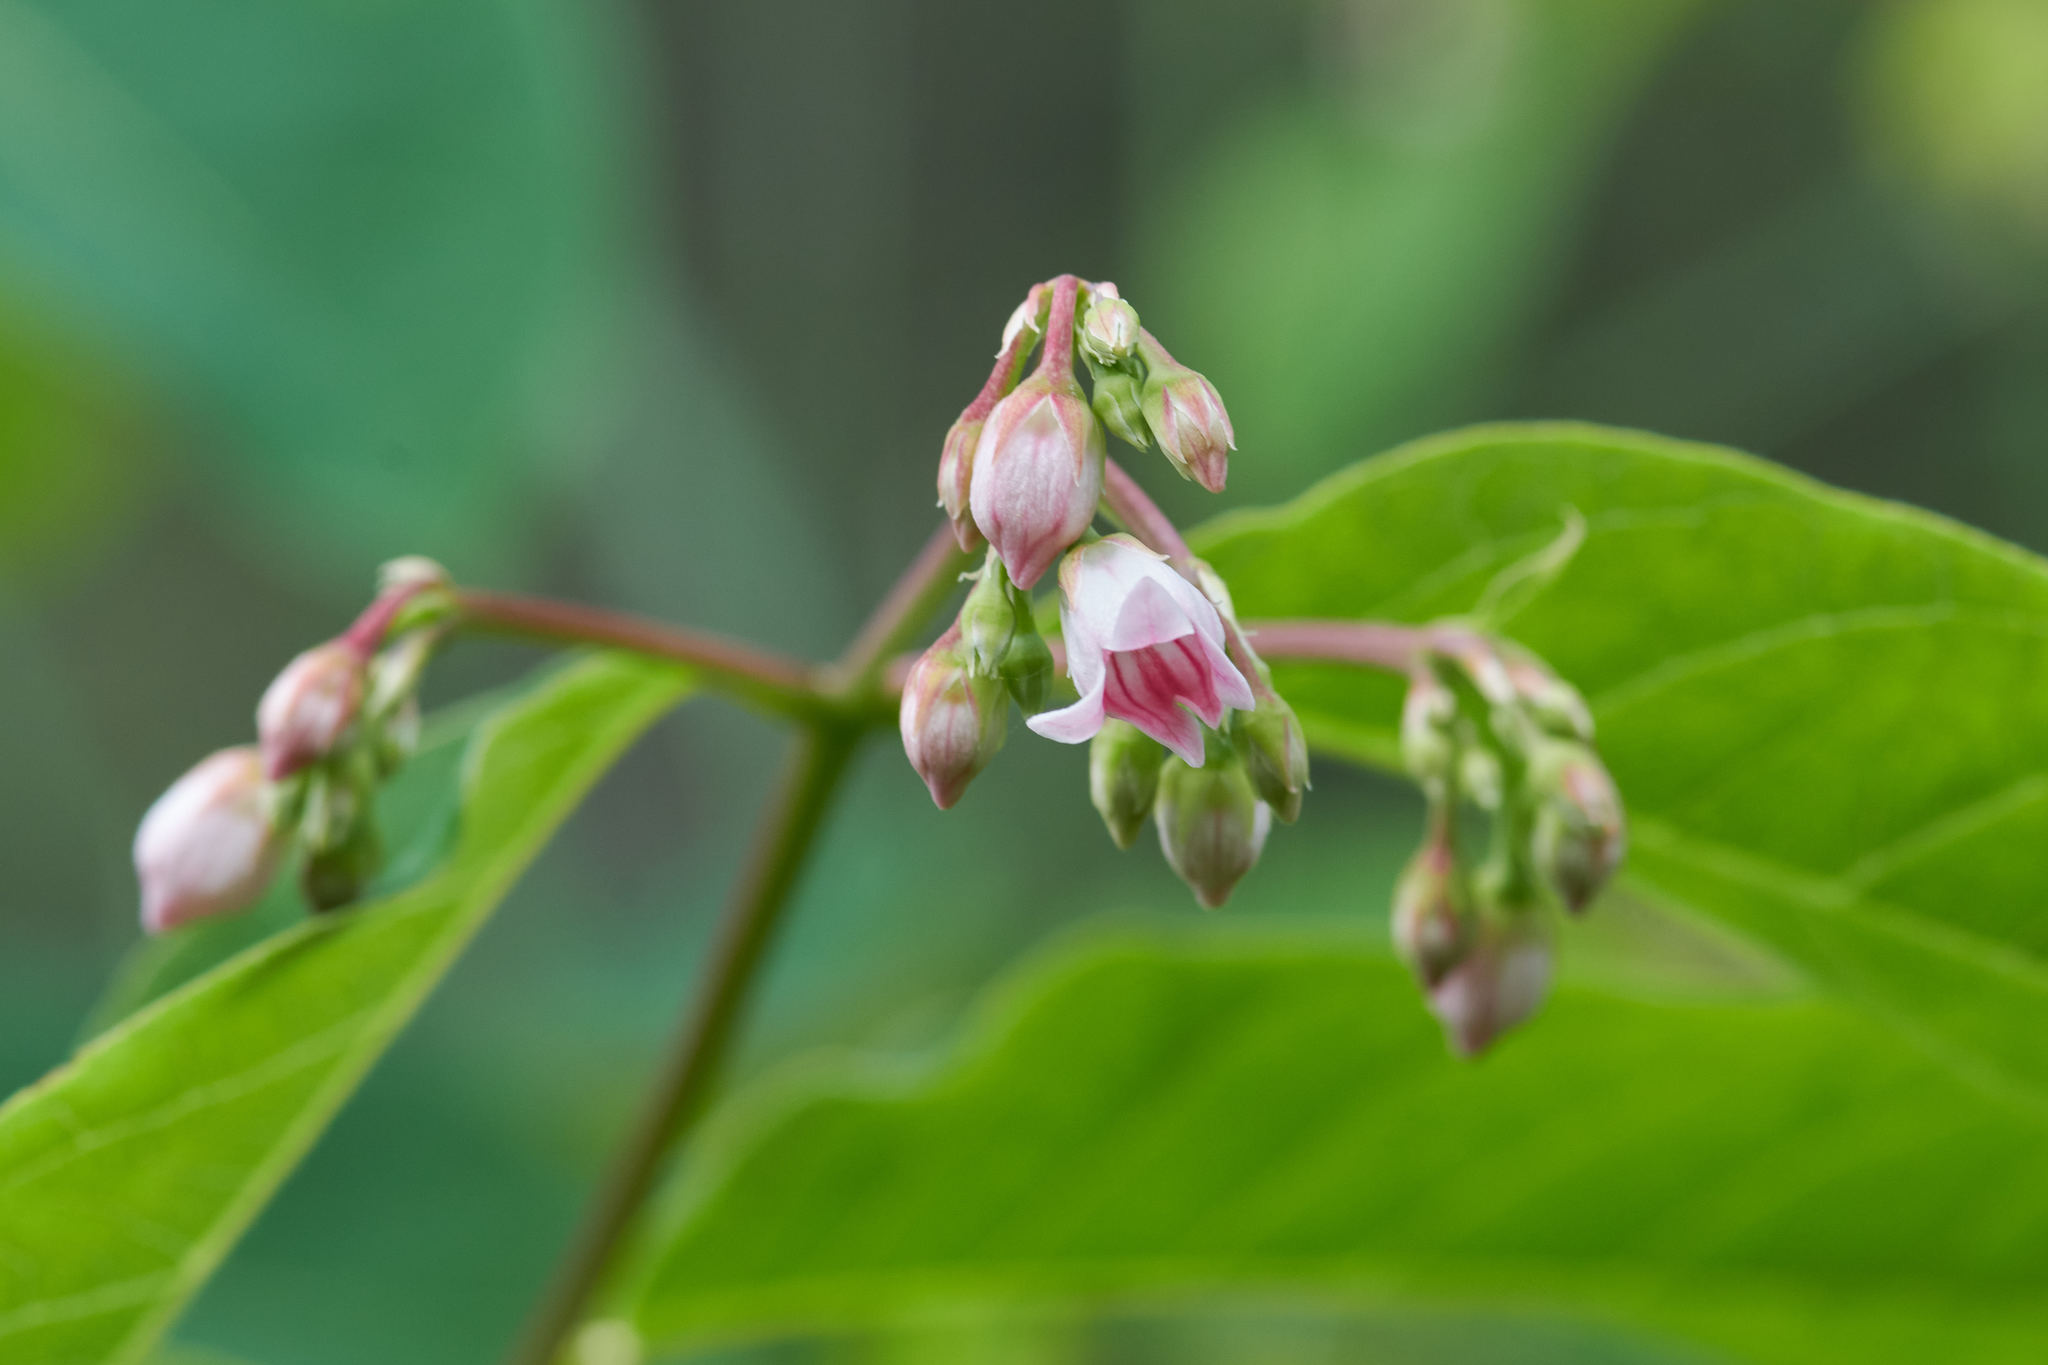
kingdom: Plantae
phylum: Tracheophyta
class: Magnoliopsida
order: Gentianales
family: Apocynaceae
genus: Apocynum
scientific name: Apocynum androsaemifolium
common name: Spreading dogbane
